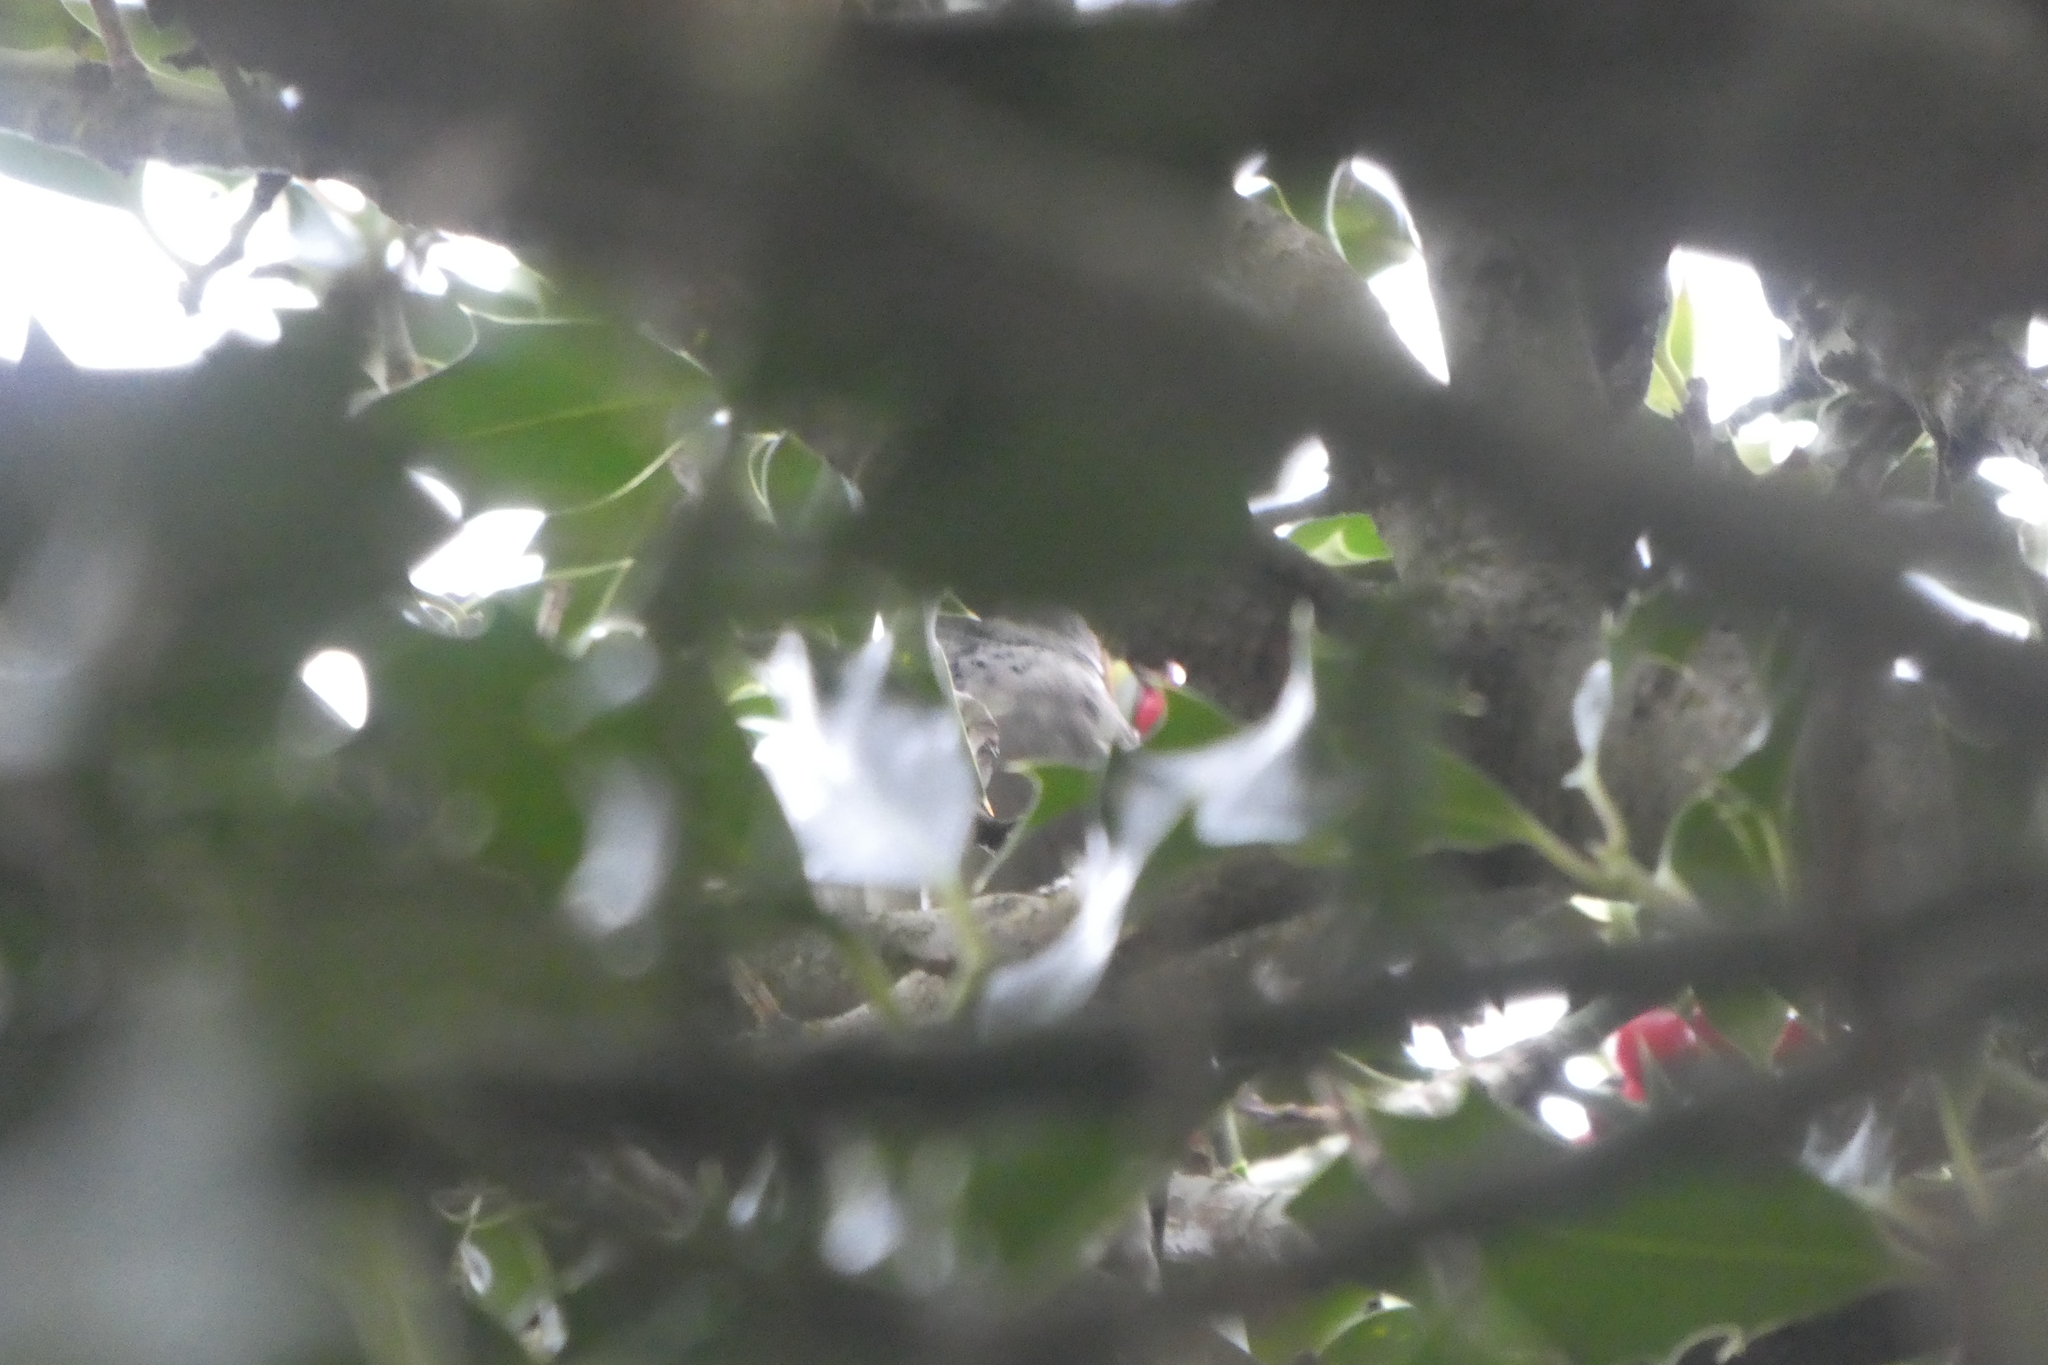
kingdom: Animalia
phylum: Chordata
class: Aves
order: Passeriformes
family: Passeridae
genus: Passer
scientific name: Passer domesticus
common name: House sparrow
